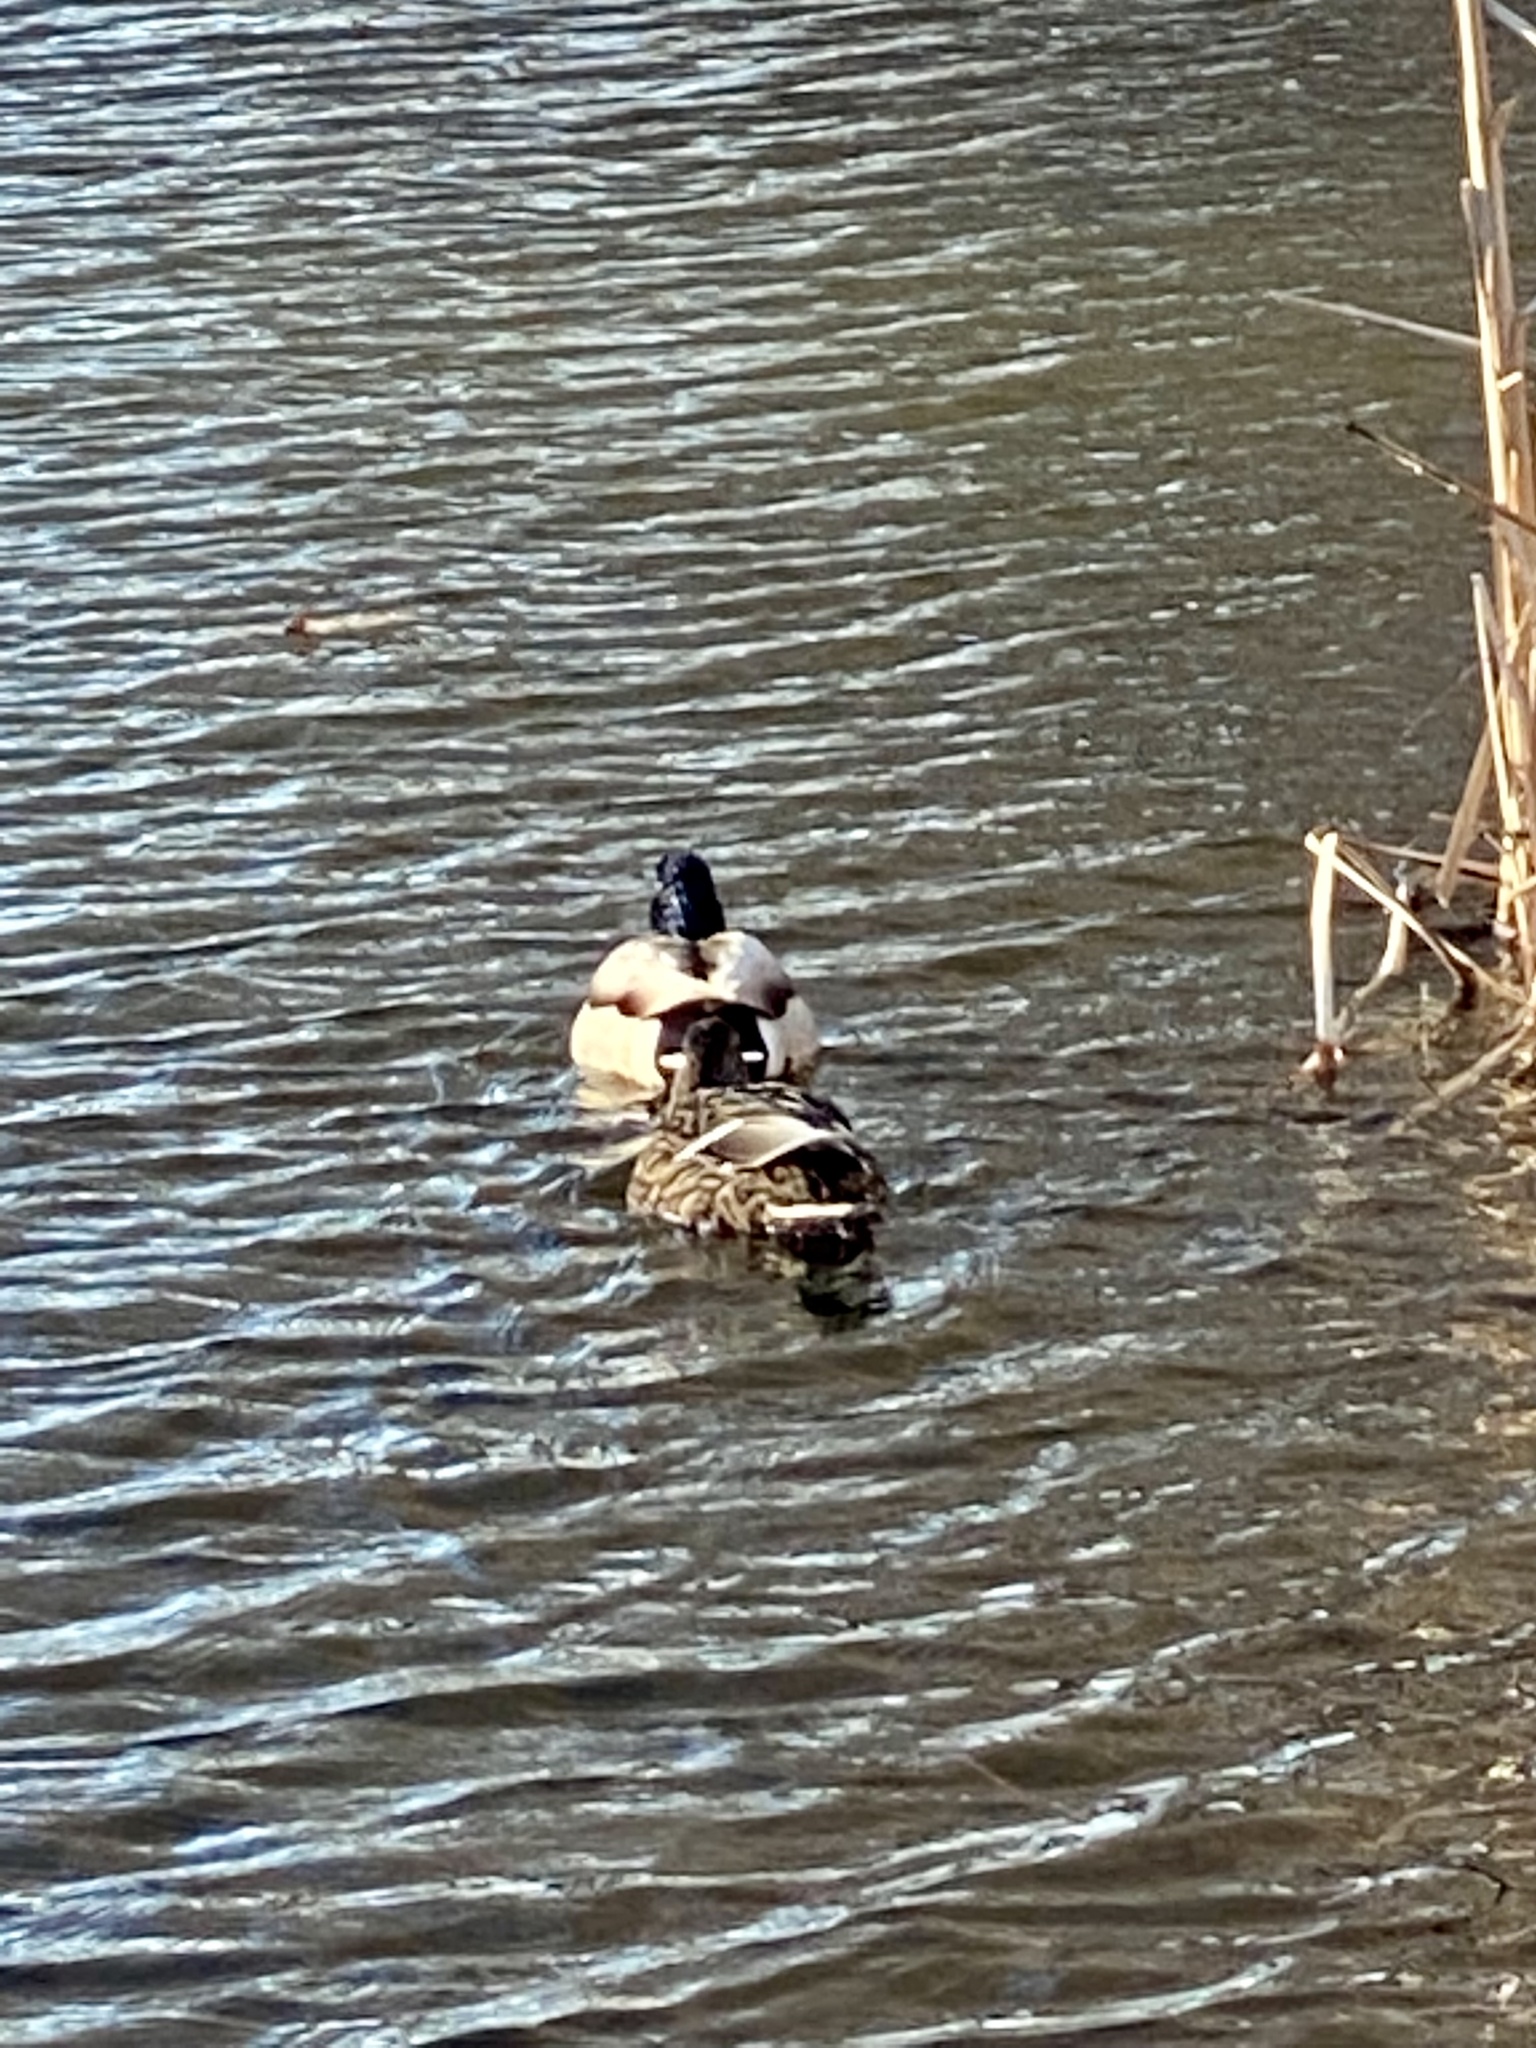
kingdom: Animalia
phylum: Chordata
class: Aves
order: Anseriformes
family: Anatidae
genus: Anas
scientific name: Anas platyrhynchos
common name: Mallard
